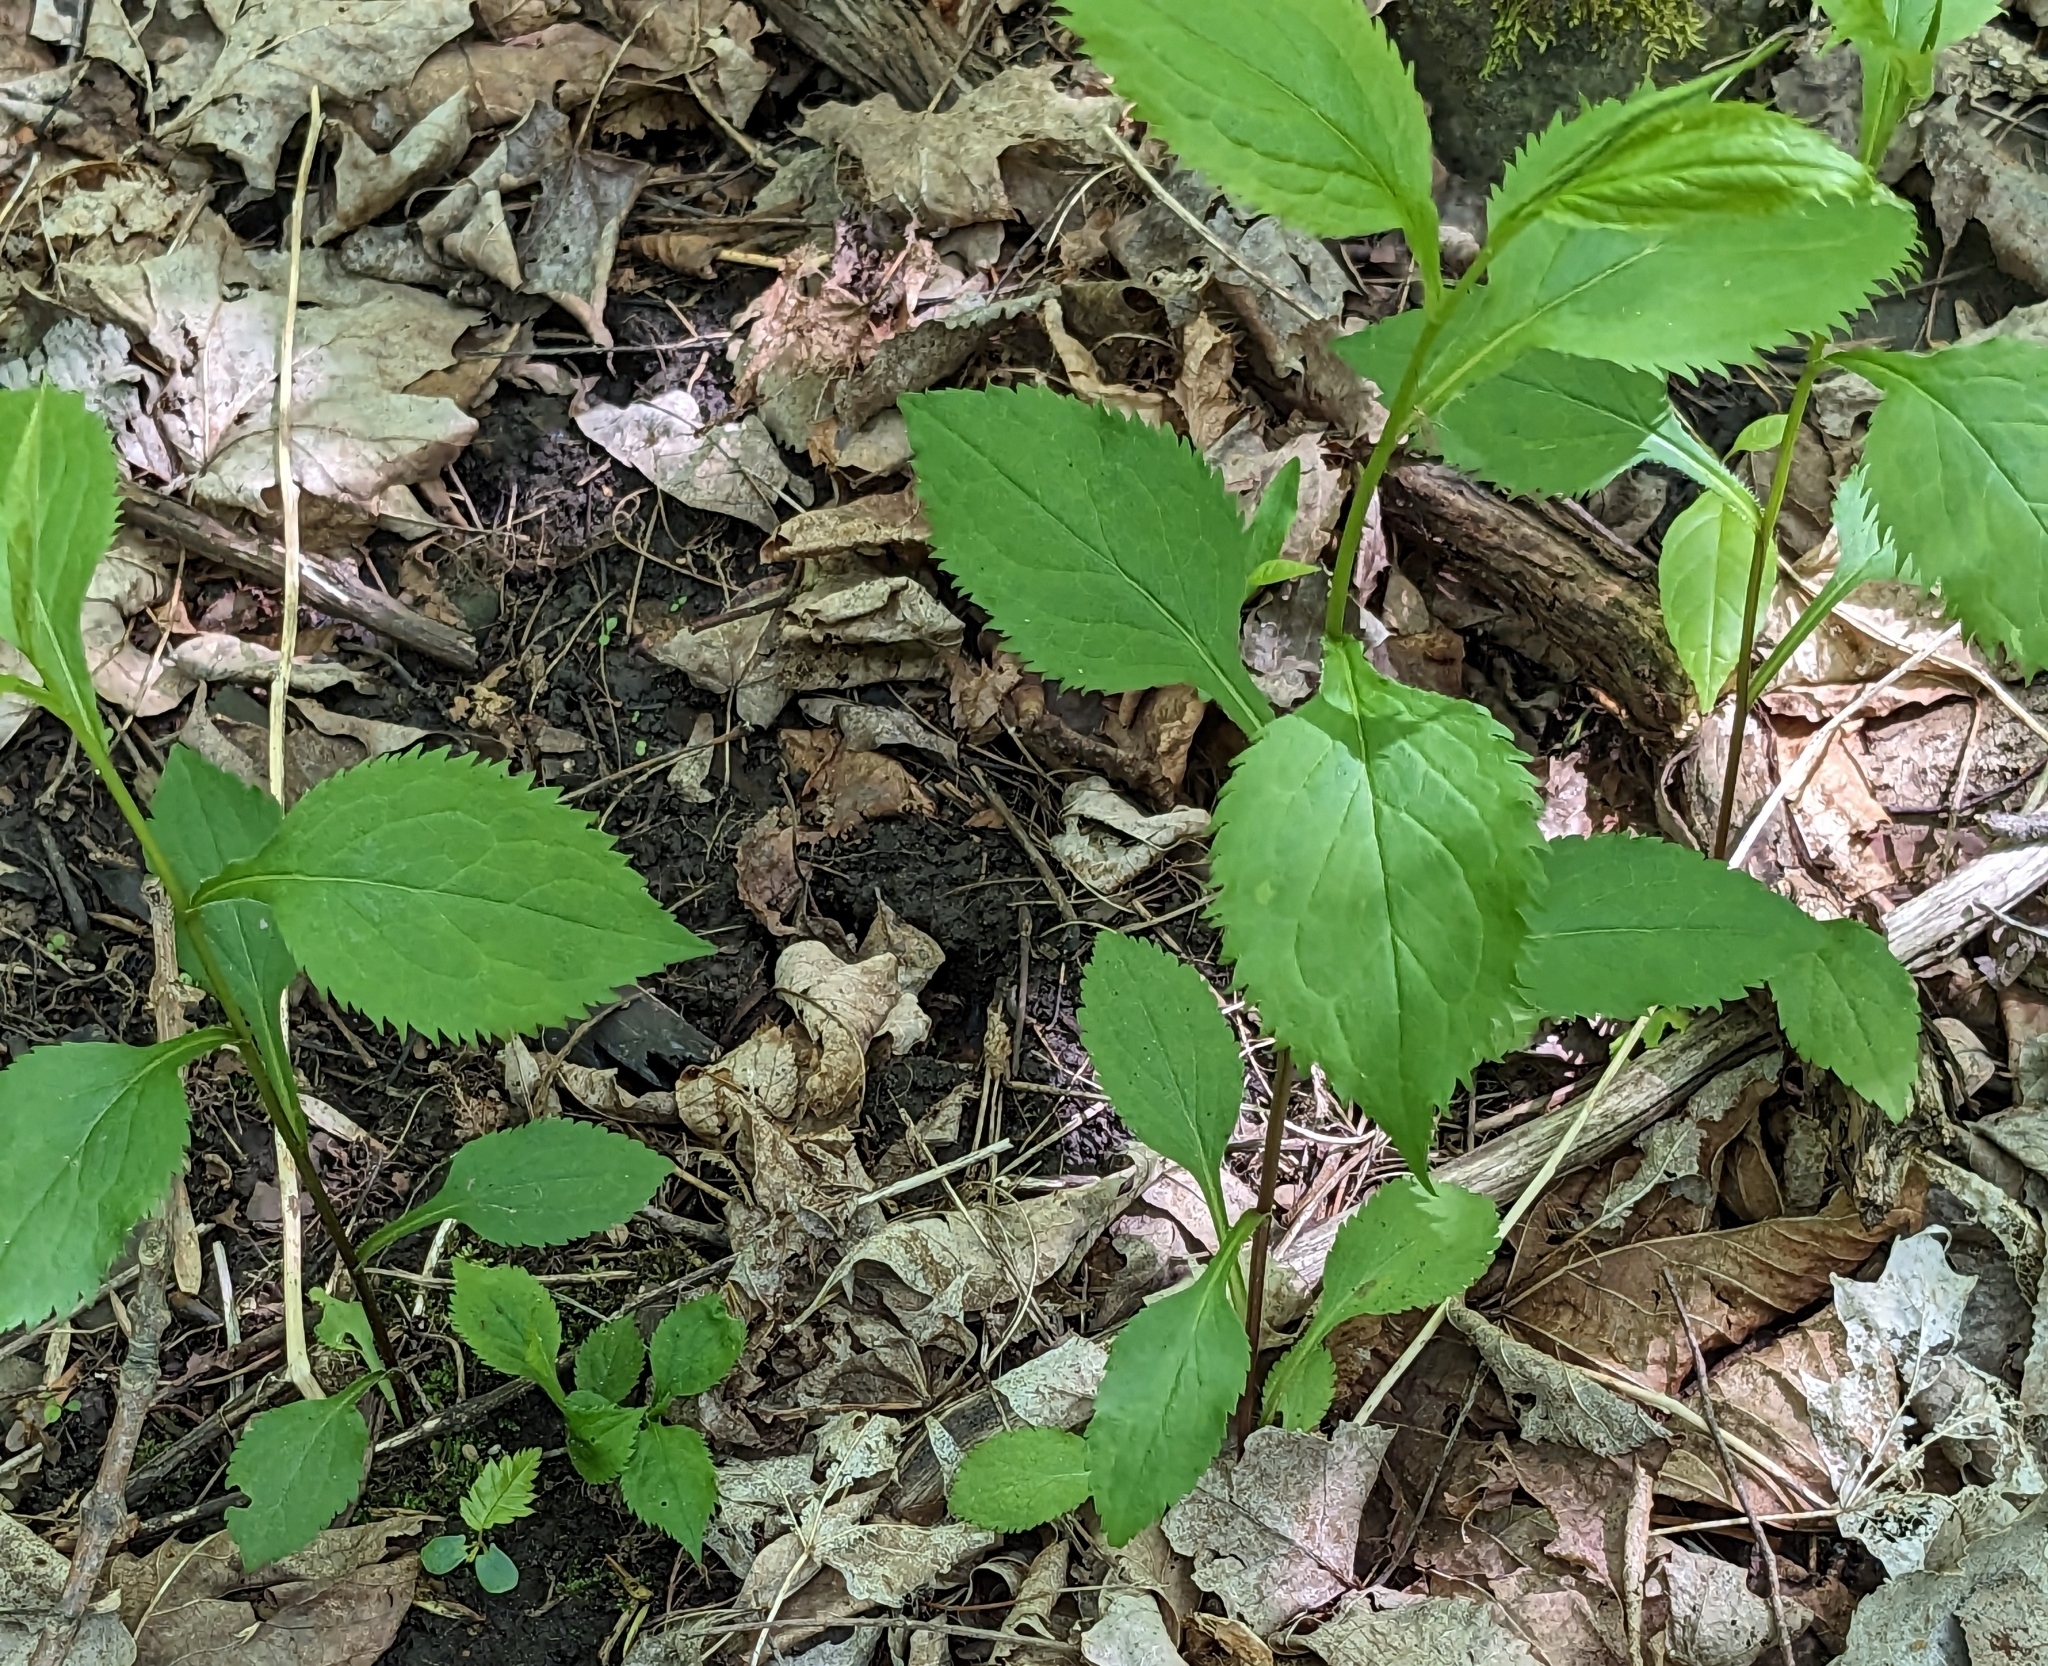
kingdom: Plantae
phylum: Tracheophyta
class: Magnoliopsida
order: Asterales
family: Asteraceae
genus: Solidago
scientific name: Solidago flexicaulis
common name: Zig-zag goldenrod
